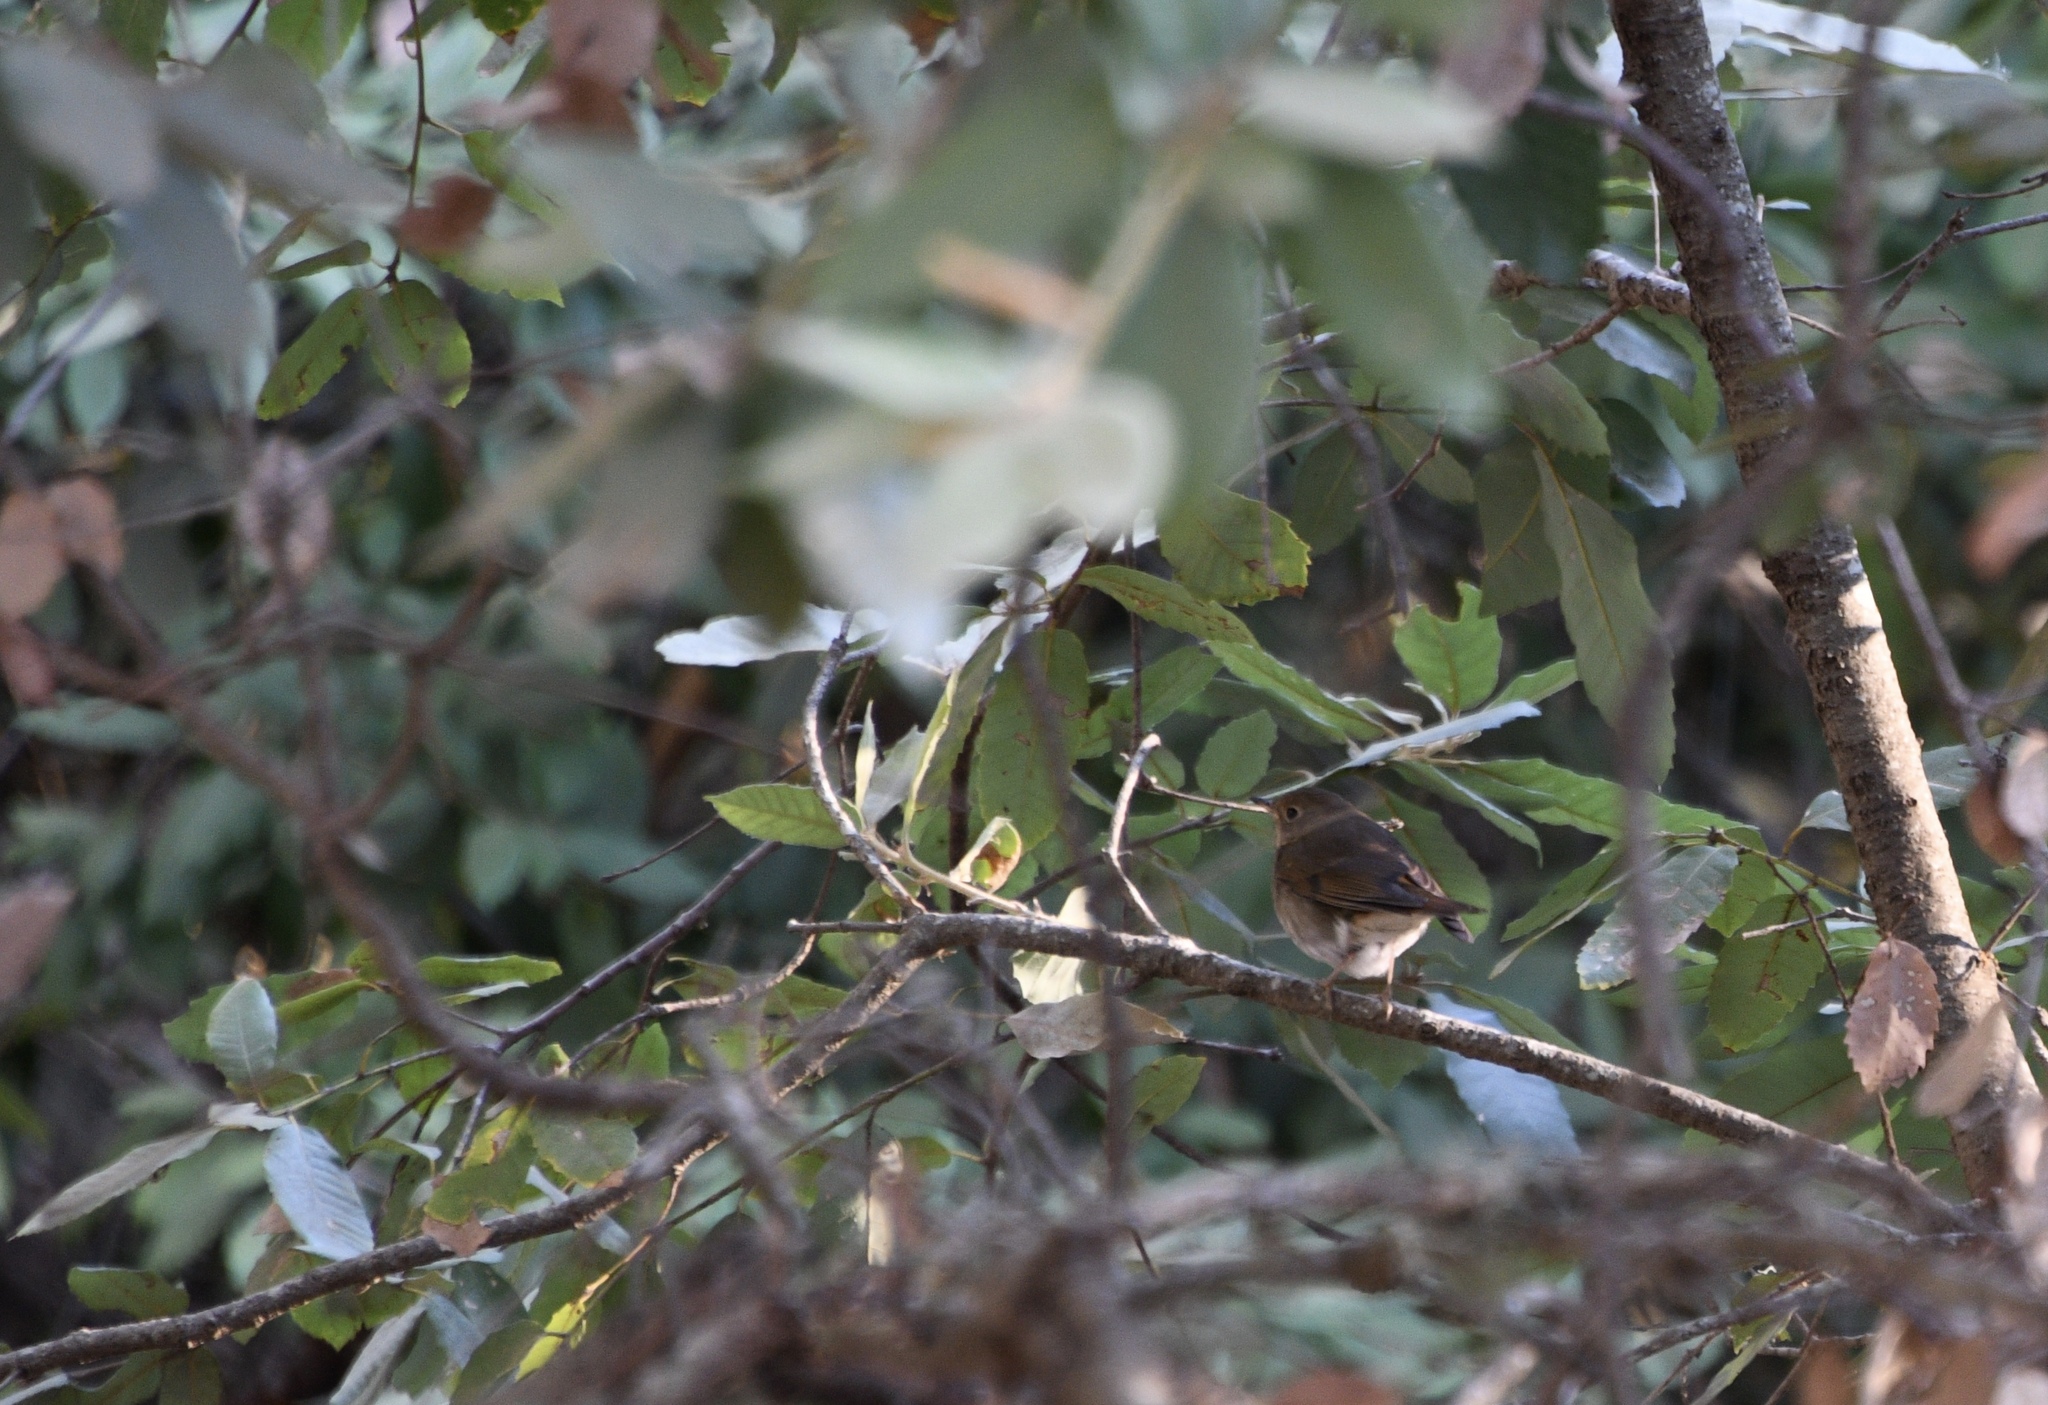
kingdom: Animalia
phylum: Chordata
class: Aves
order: Passeriformes
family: Turdidae
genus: Catharus
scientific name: Catharus guttatus
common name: Hermit thrush
